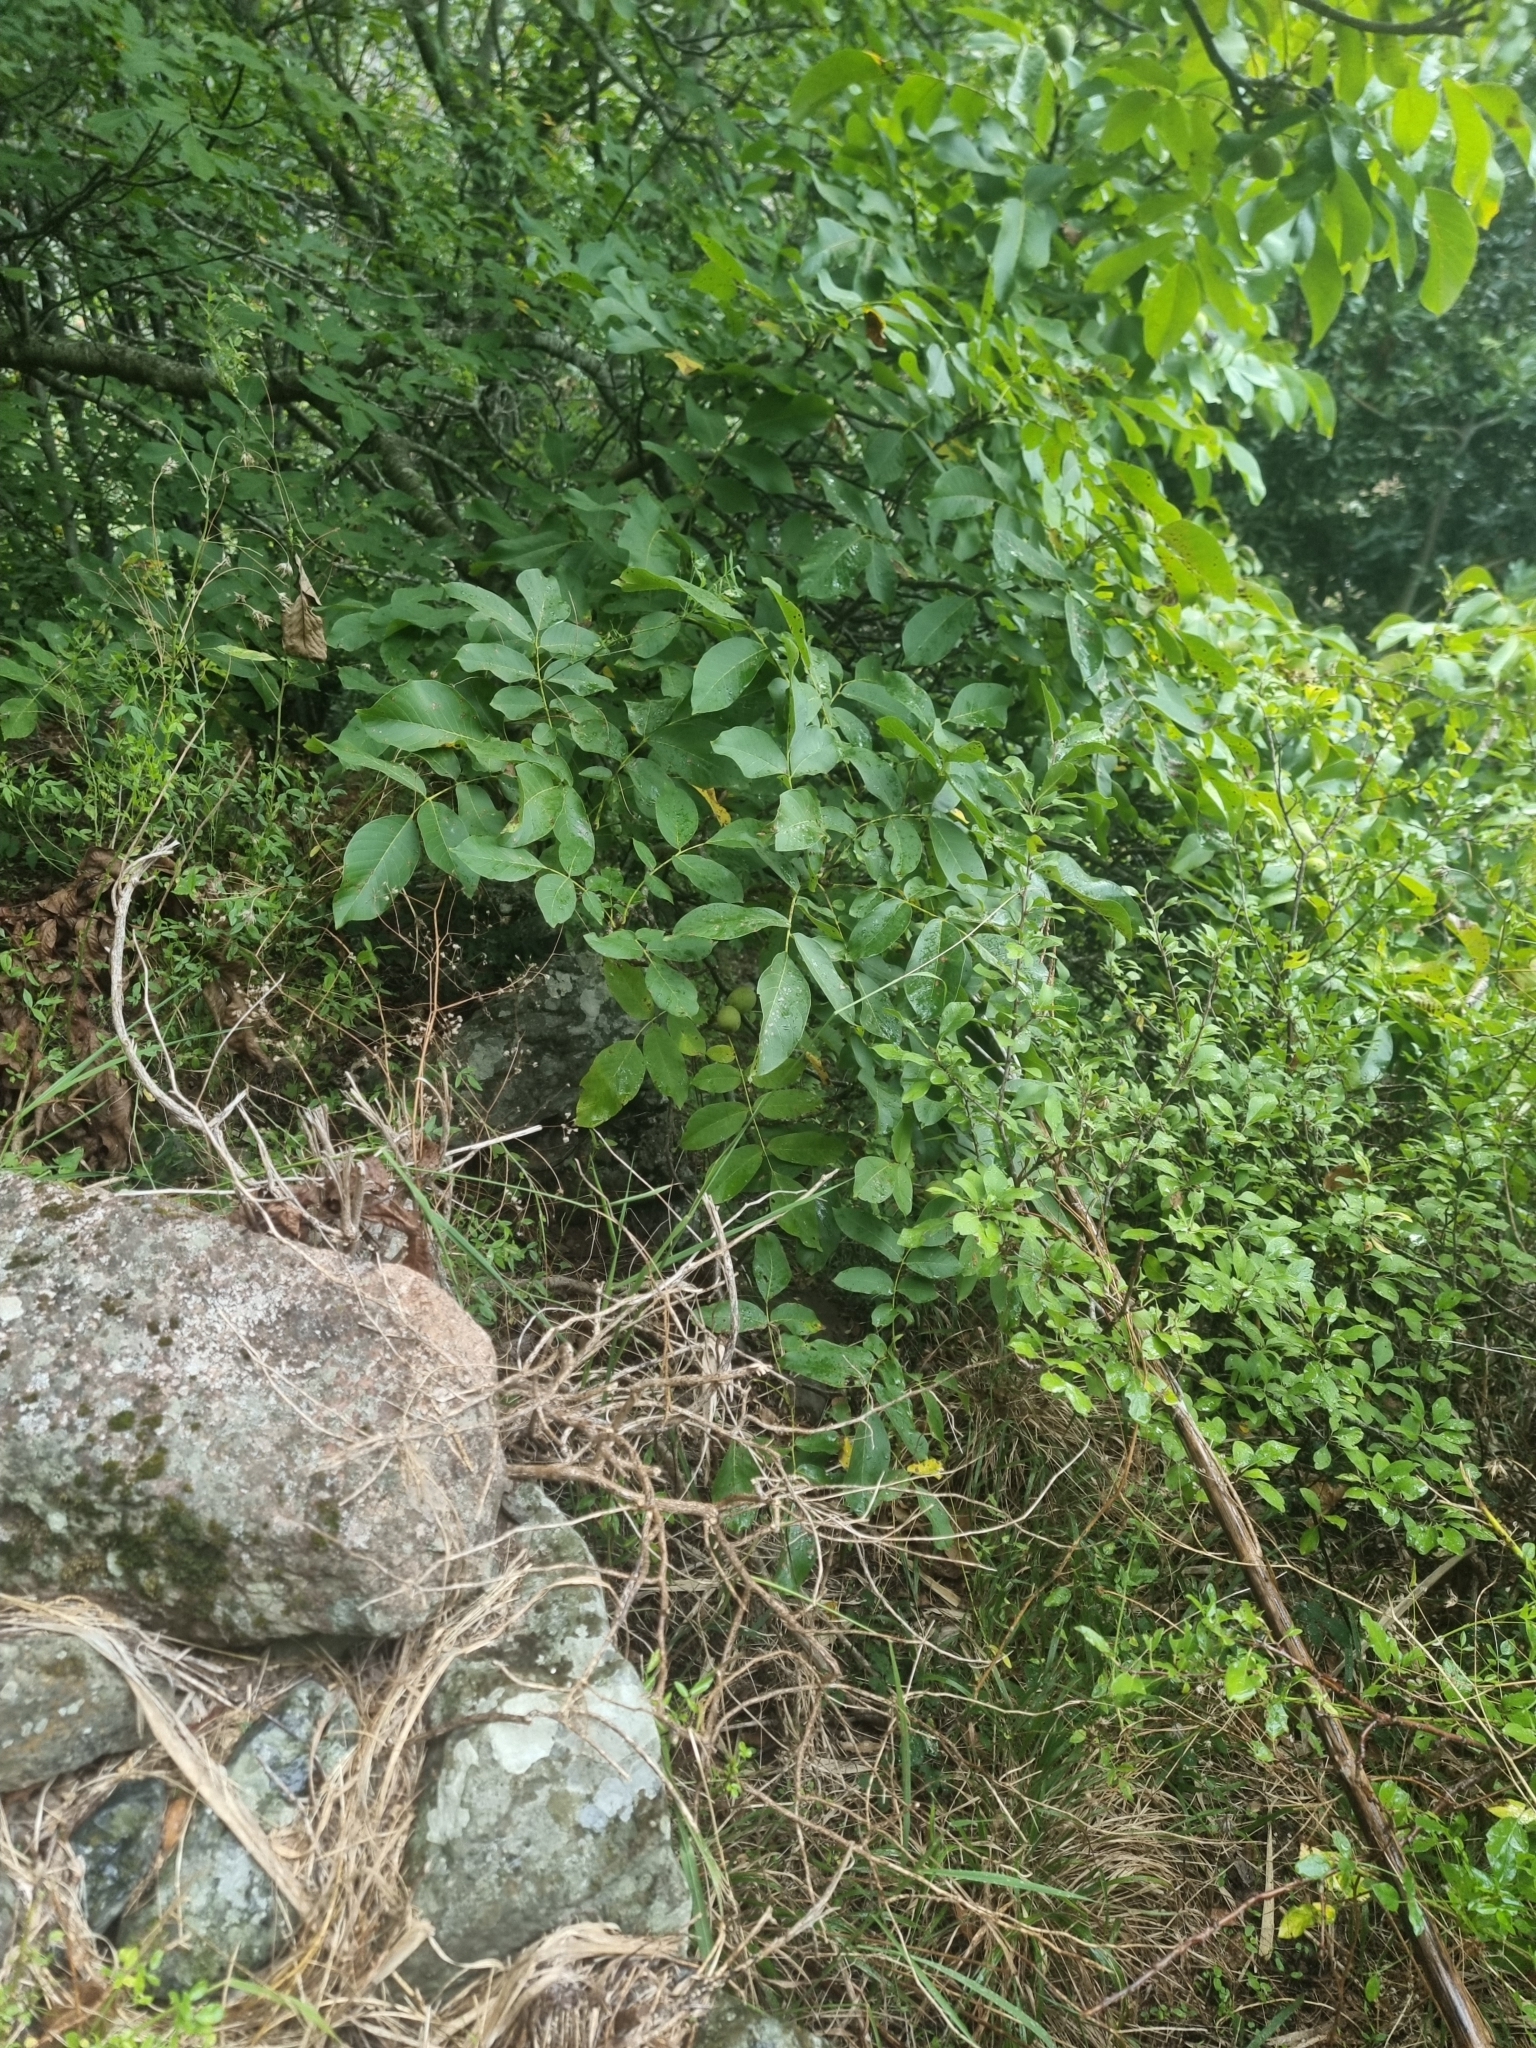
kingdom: Plantae
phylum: Tracheophyta
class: Magnoliopsida
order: Fagales
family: Juglandaceae
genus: Juglans
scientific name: Juglans regia
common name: Walnut
